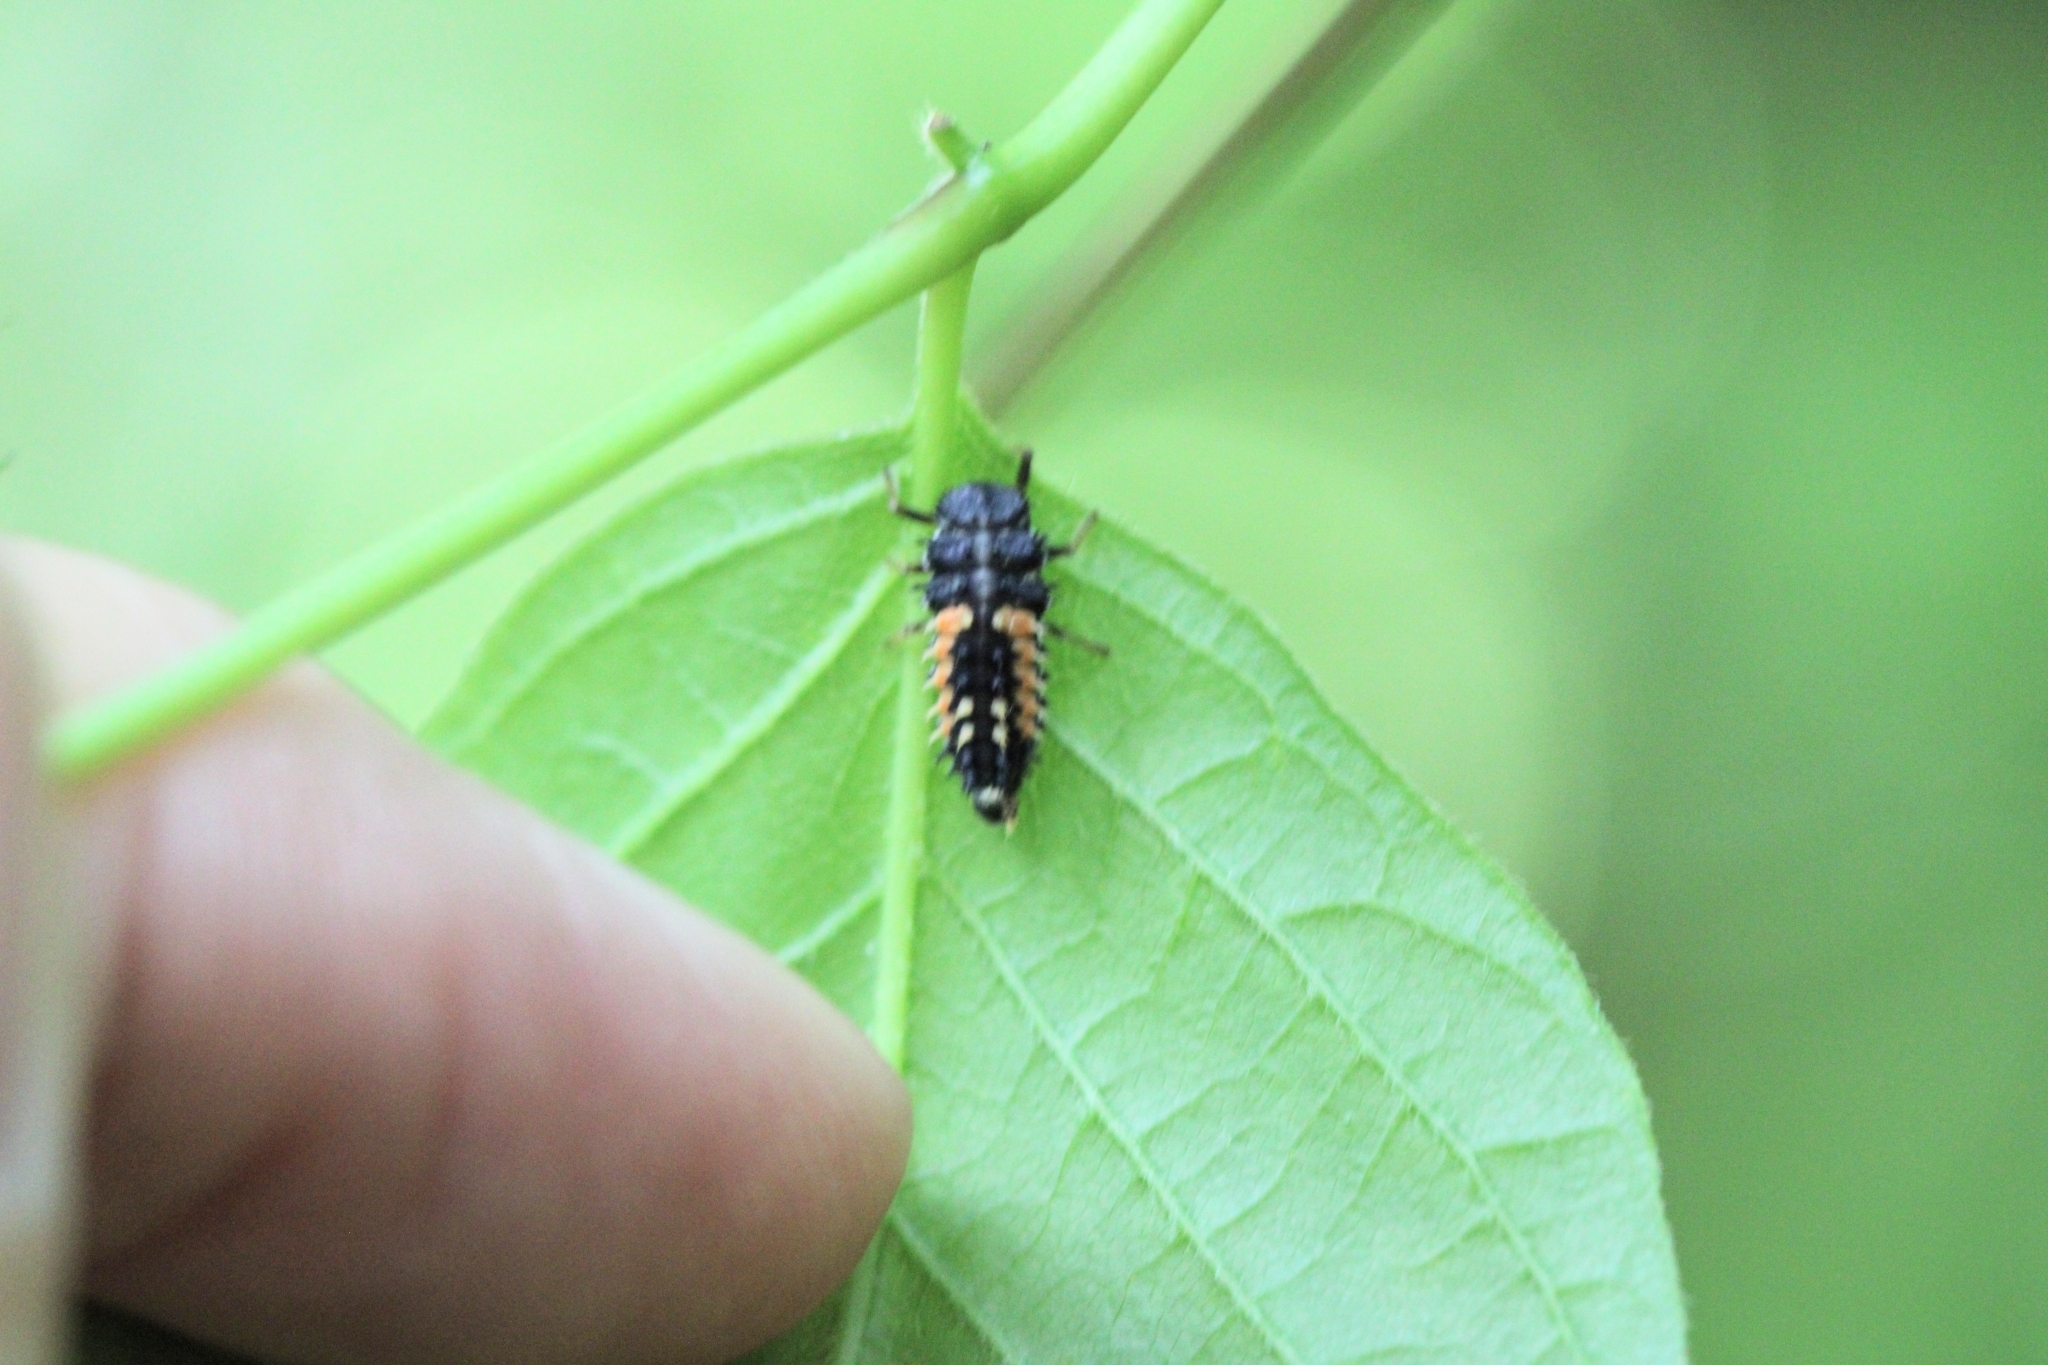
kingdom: Animalia
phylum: Arthropoda
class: Insecta
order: Coleoptera
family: Coccinellidae
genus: Harmonia
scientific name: Harmonia axyridis
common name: Harlequin ladybird
